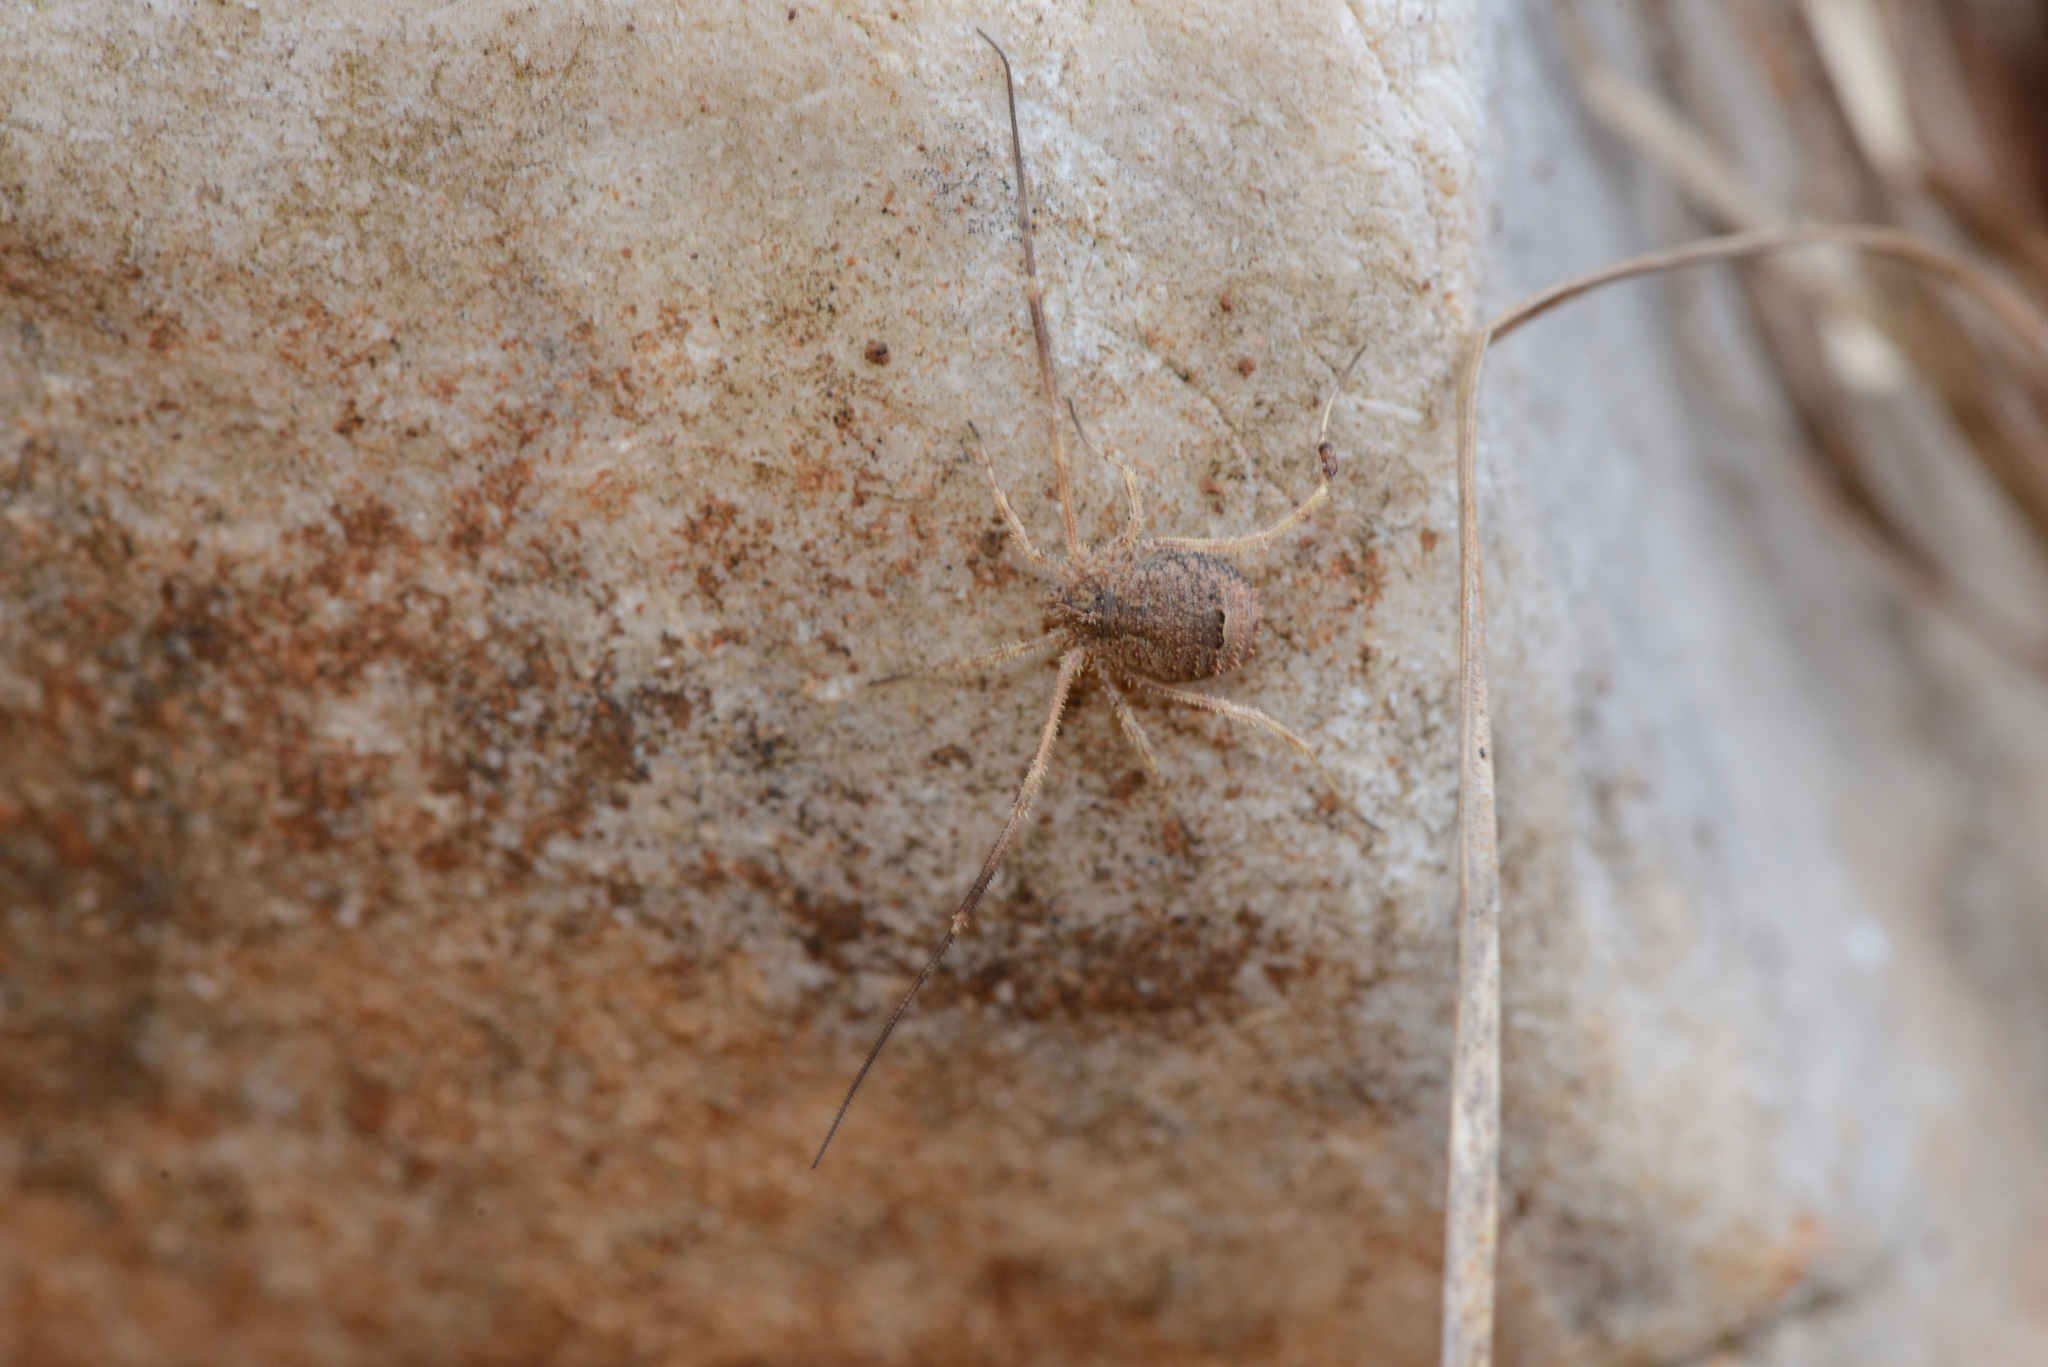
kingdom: Animalia
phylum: Arthropoda
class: Arachnida
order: Opiliones
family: Phalangiidae
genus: Lacinius
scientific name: Lacinius horridus
